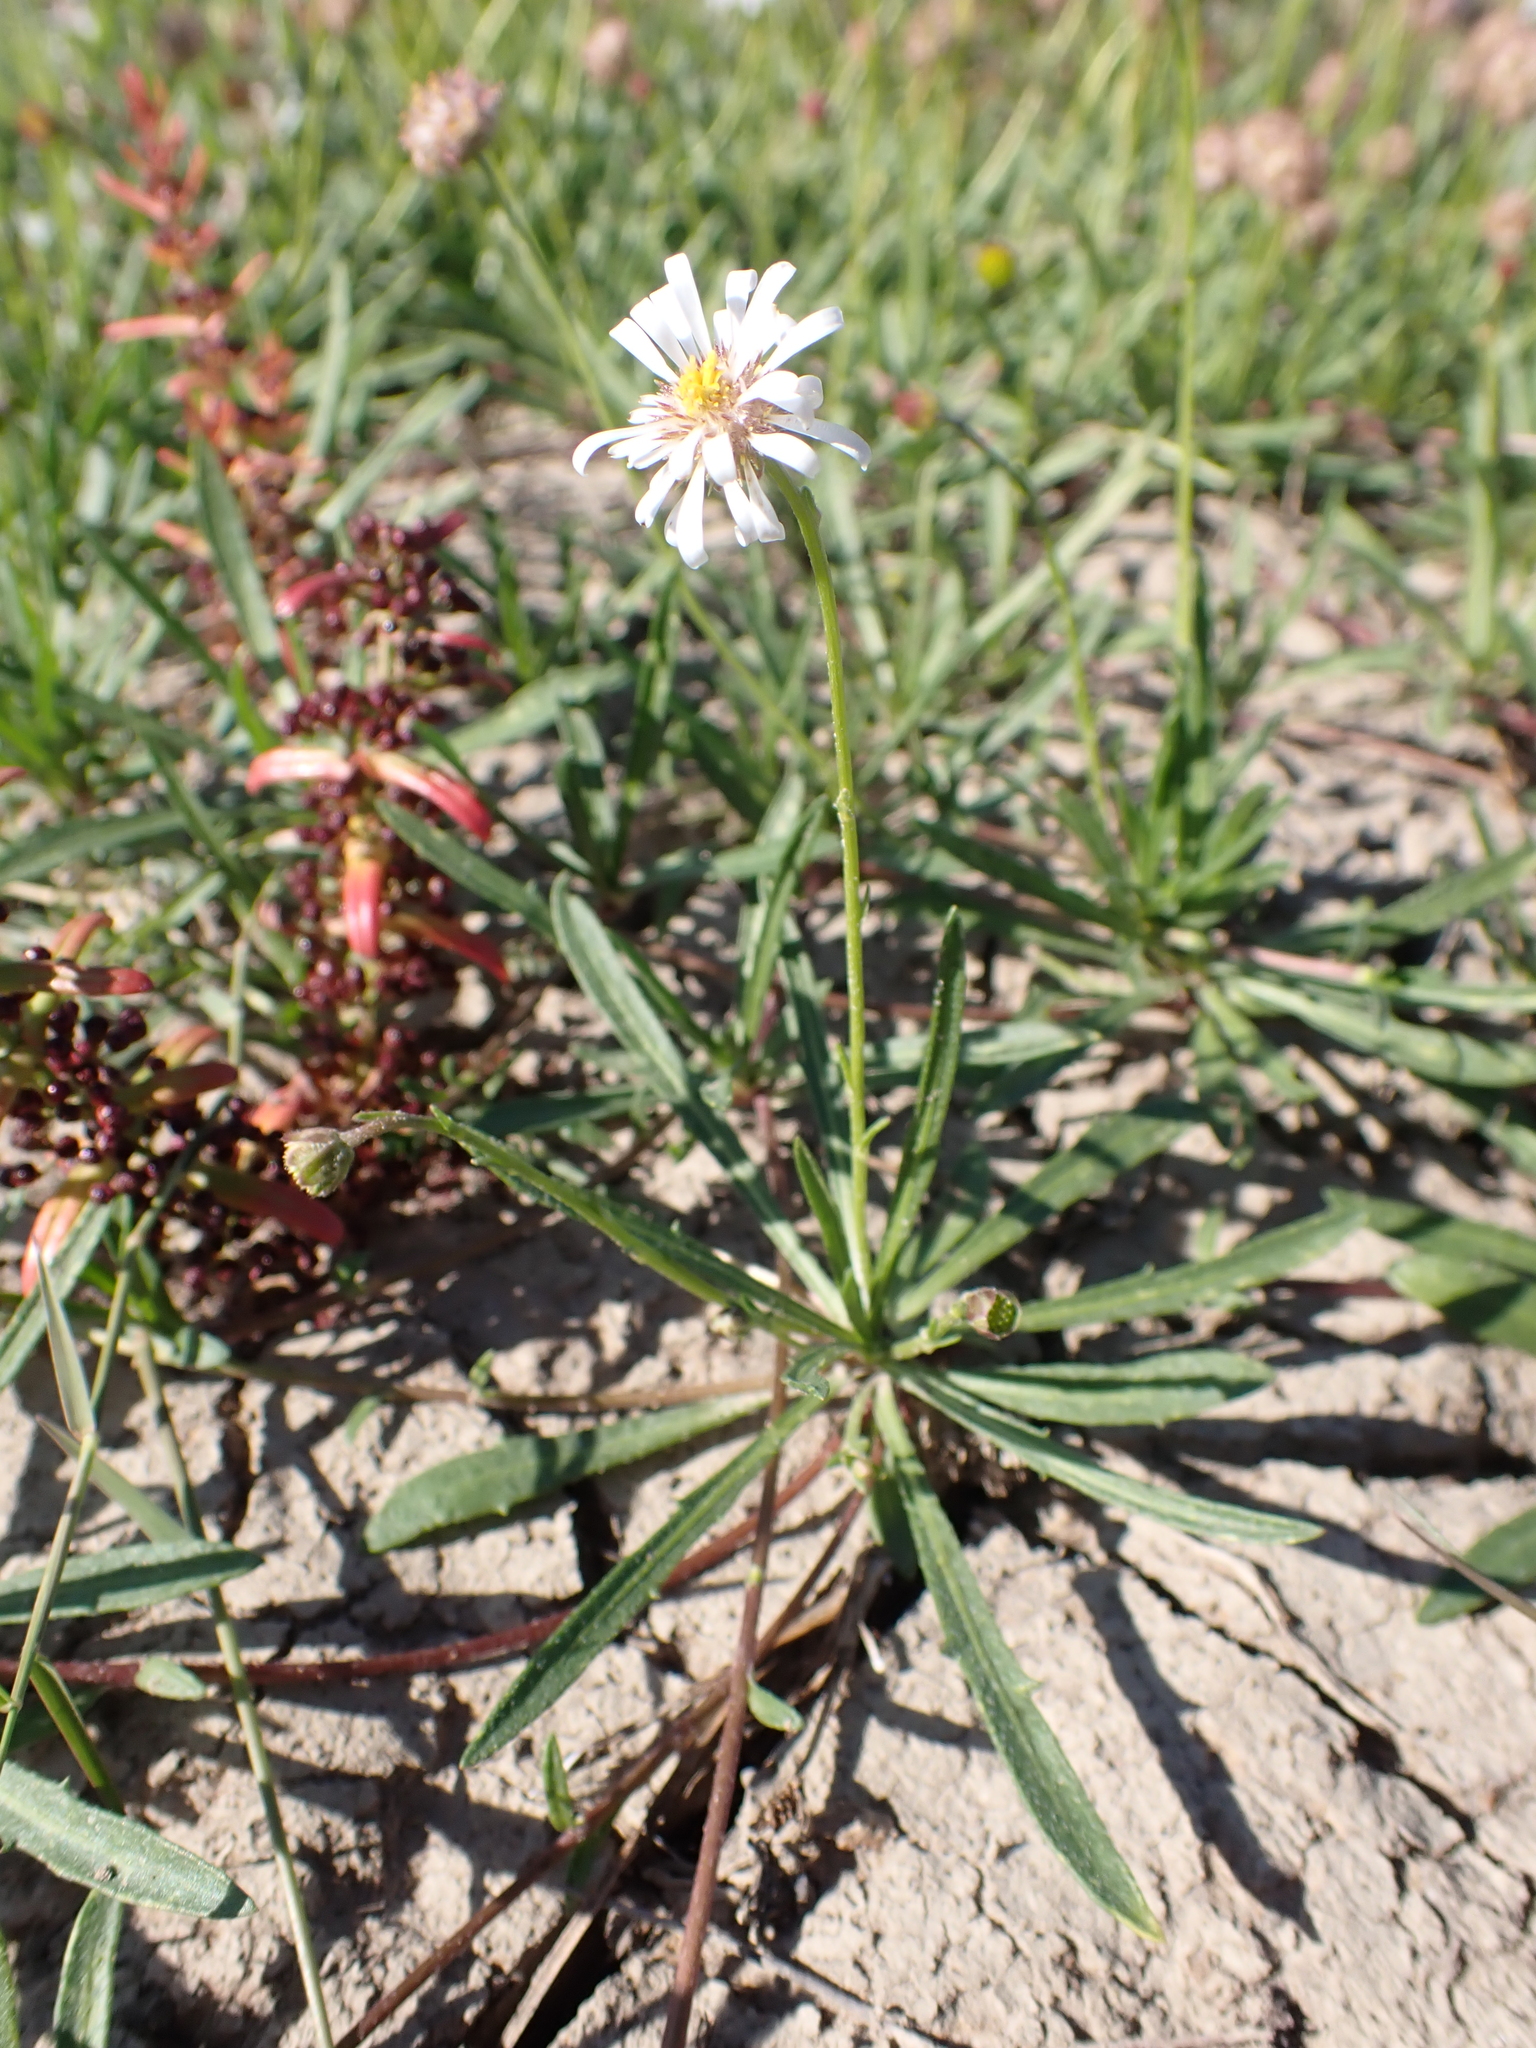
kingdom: Plantae
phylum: Tracheophyta
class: Magnoliopsida
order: Asterales
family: Asteraceae
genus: Calotis
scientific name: Calotis scapigera
